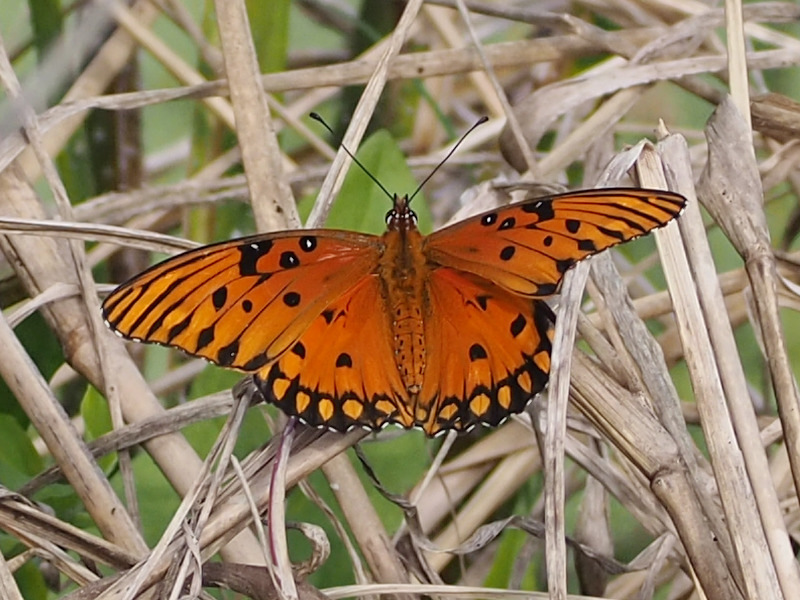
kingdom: Animalia
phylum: Arthropoda
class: Insecta
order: Lepidoptera
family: Nymphalidae
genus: Dione
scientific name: Dione vanillae
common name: Gulf fritillary
